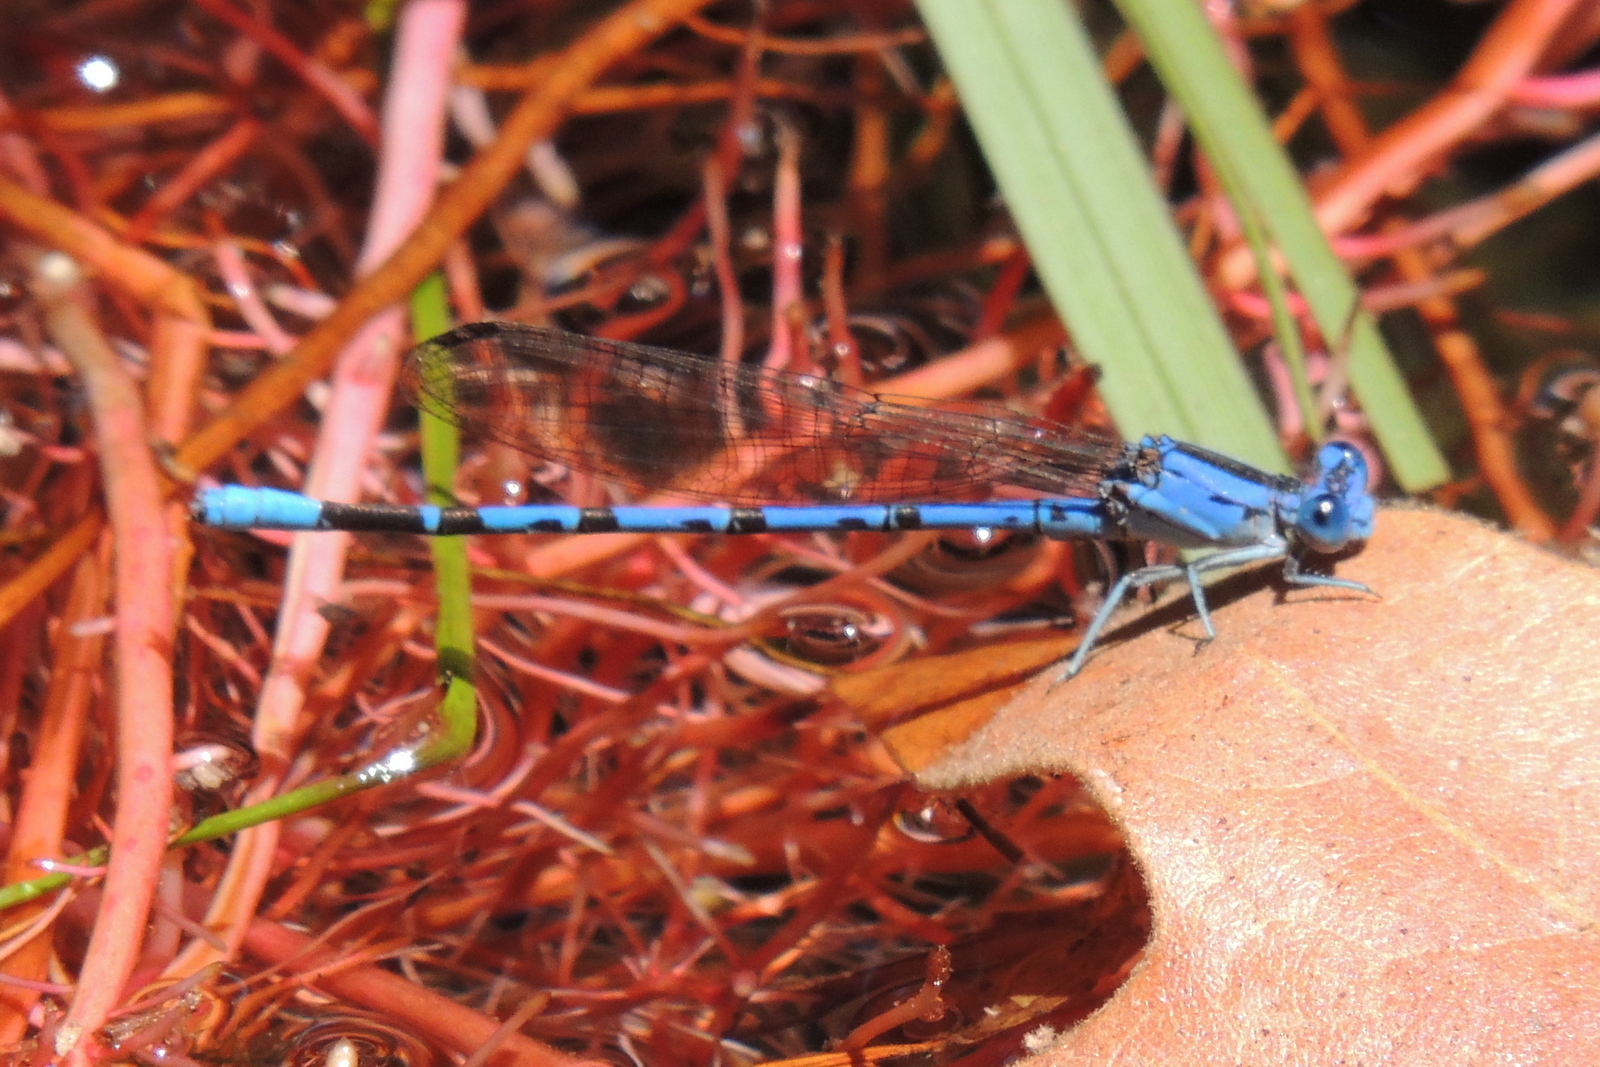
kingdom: Animalia
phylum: Arthropoda
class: Insecta
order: Odonata
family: Coenagrionidae
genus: Argia
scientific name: Argia vivida
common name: Vivid dancer
